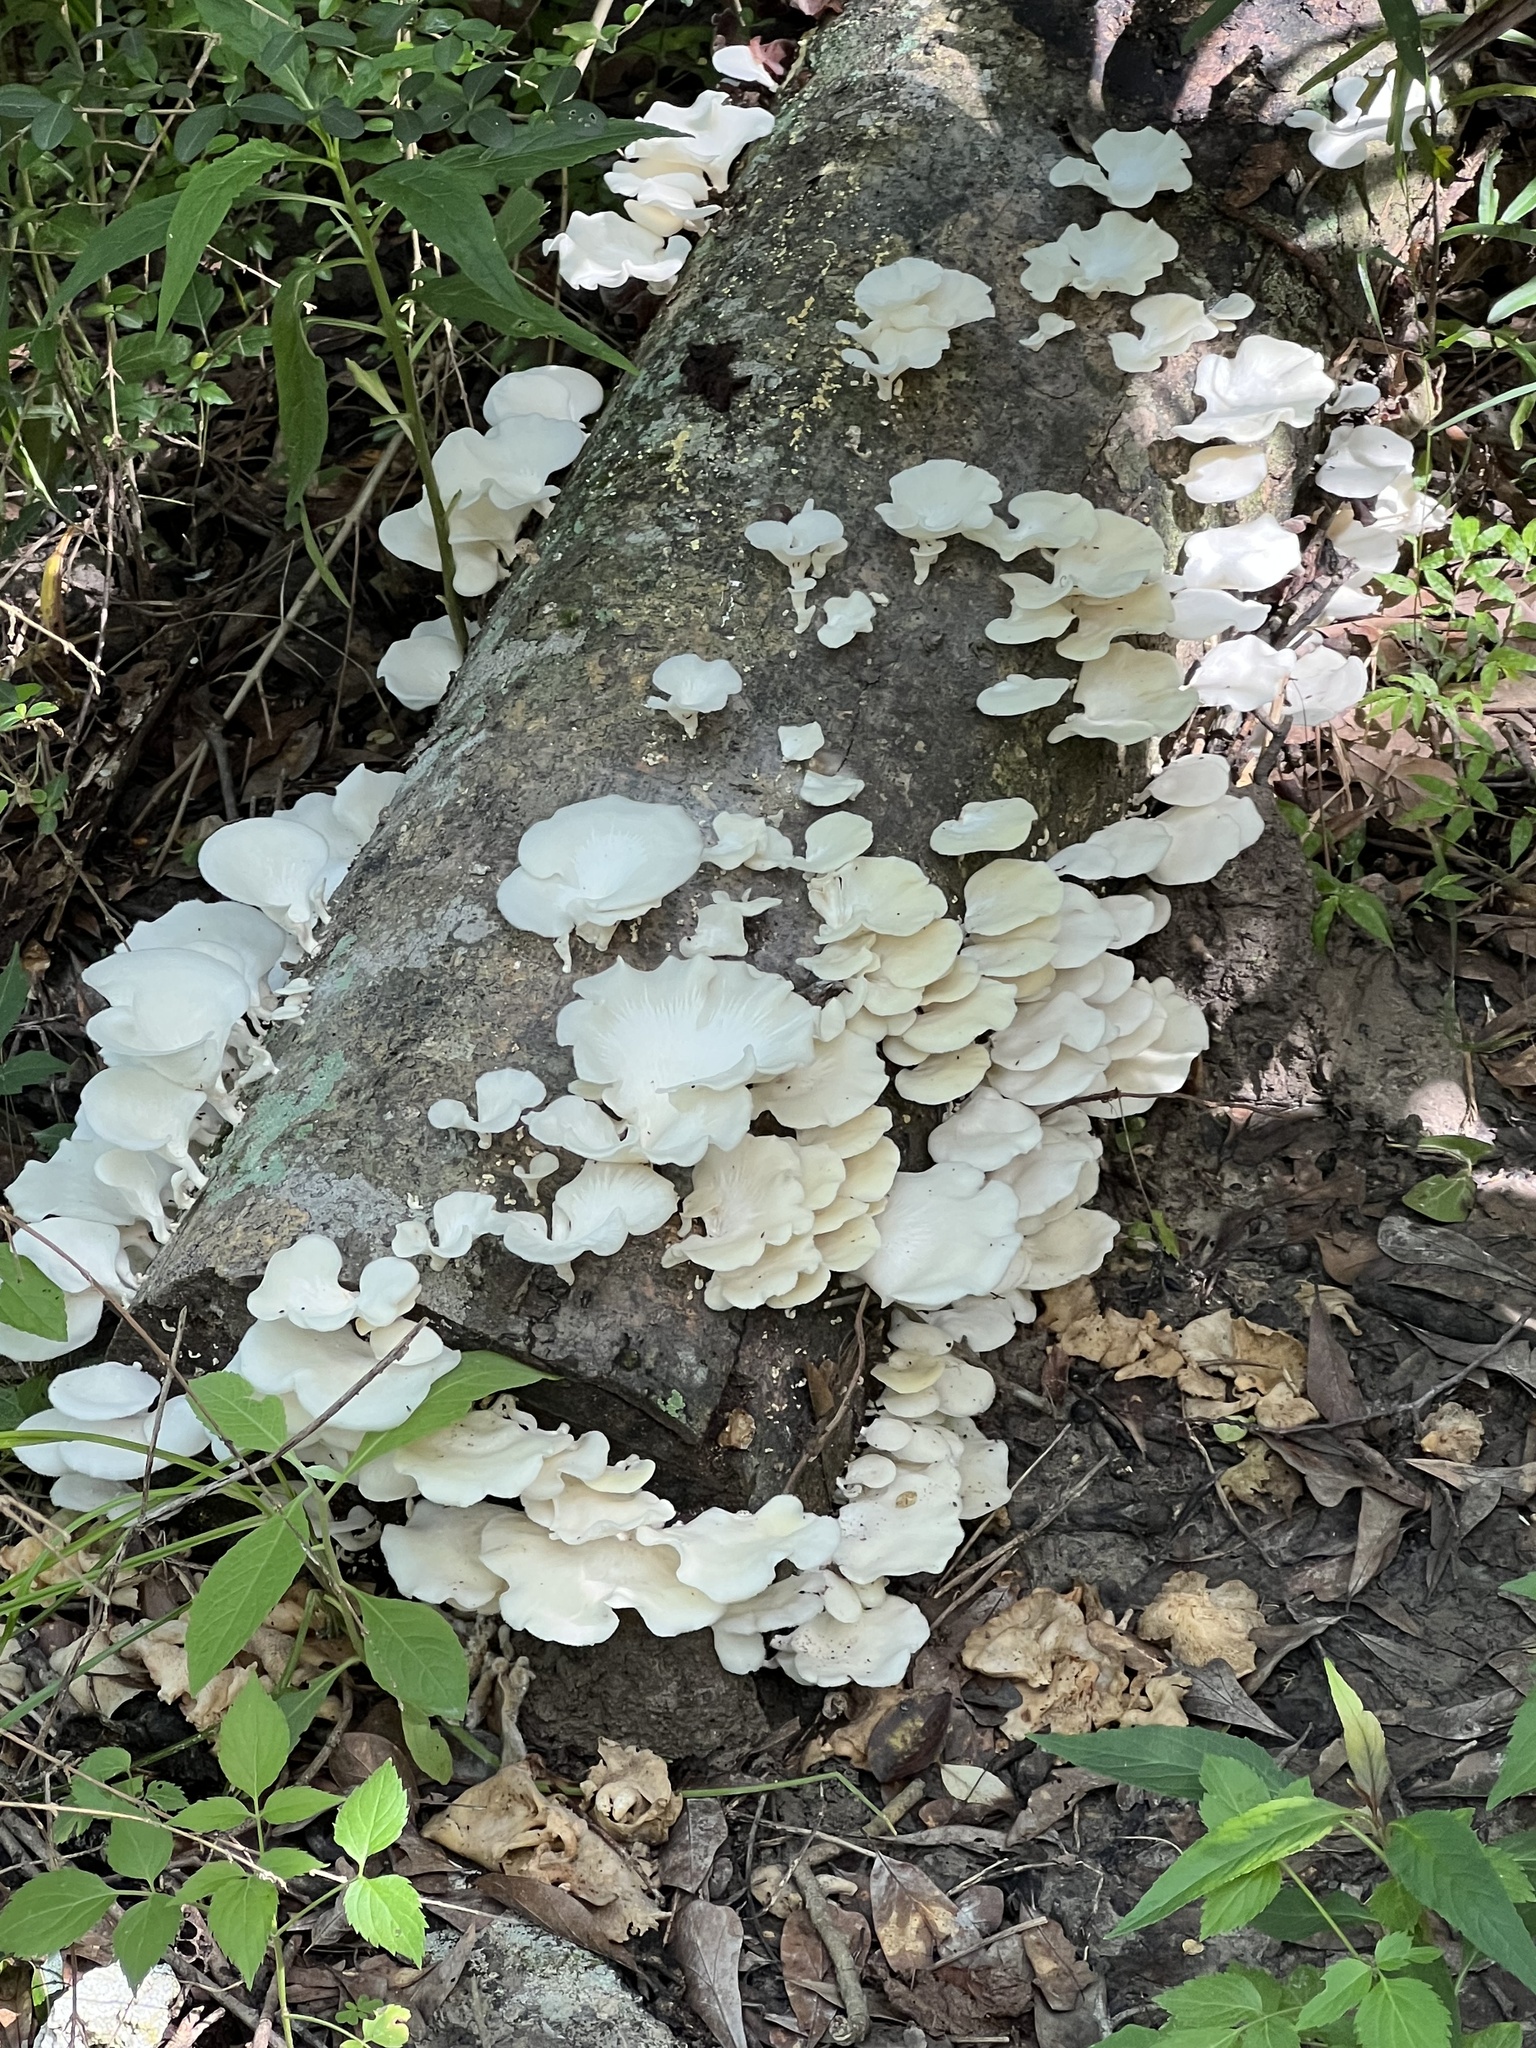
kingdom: Fungi
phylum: Basidiomycota
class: Agaricomycetes
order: Polyporales
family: Polyporaceae
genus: Favolus
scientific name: Favolus tenuiculus
